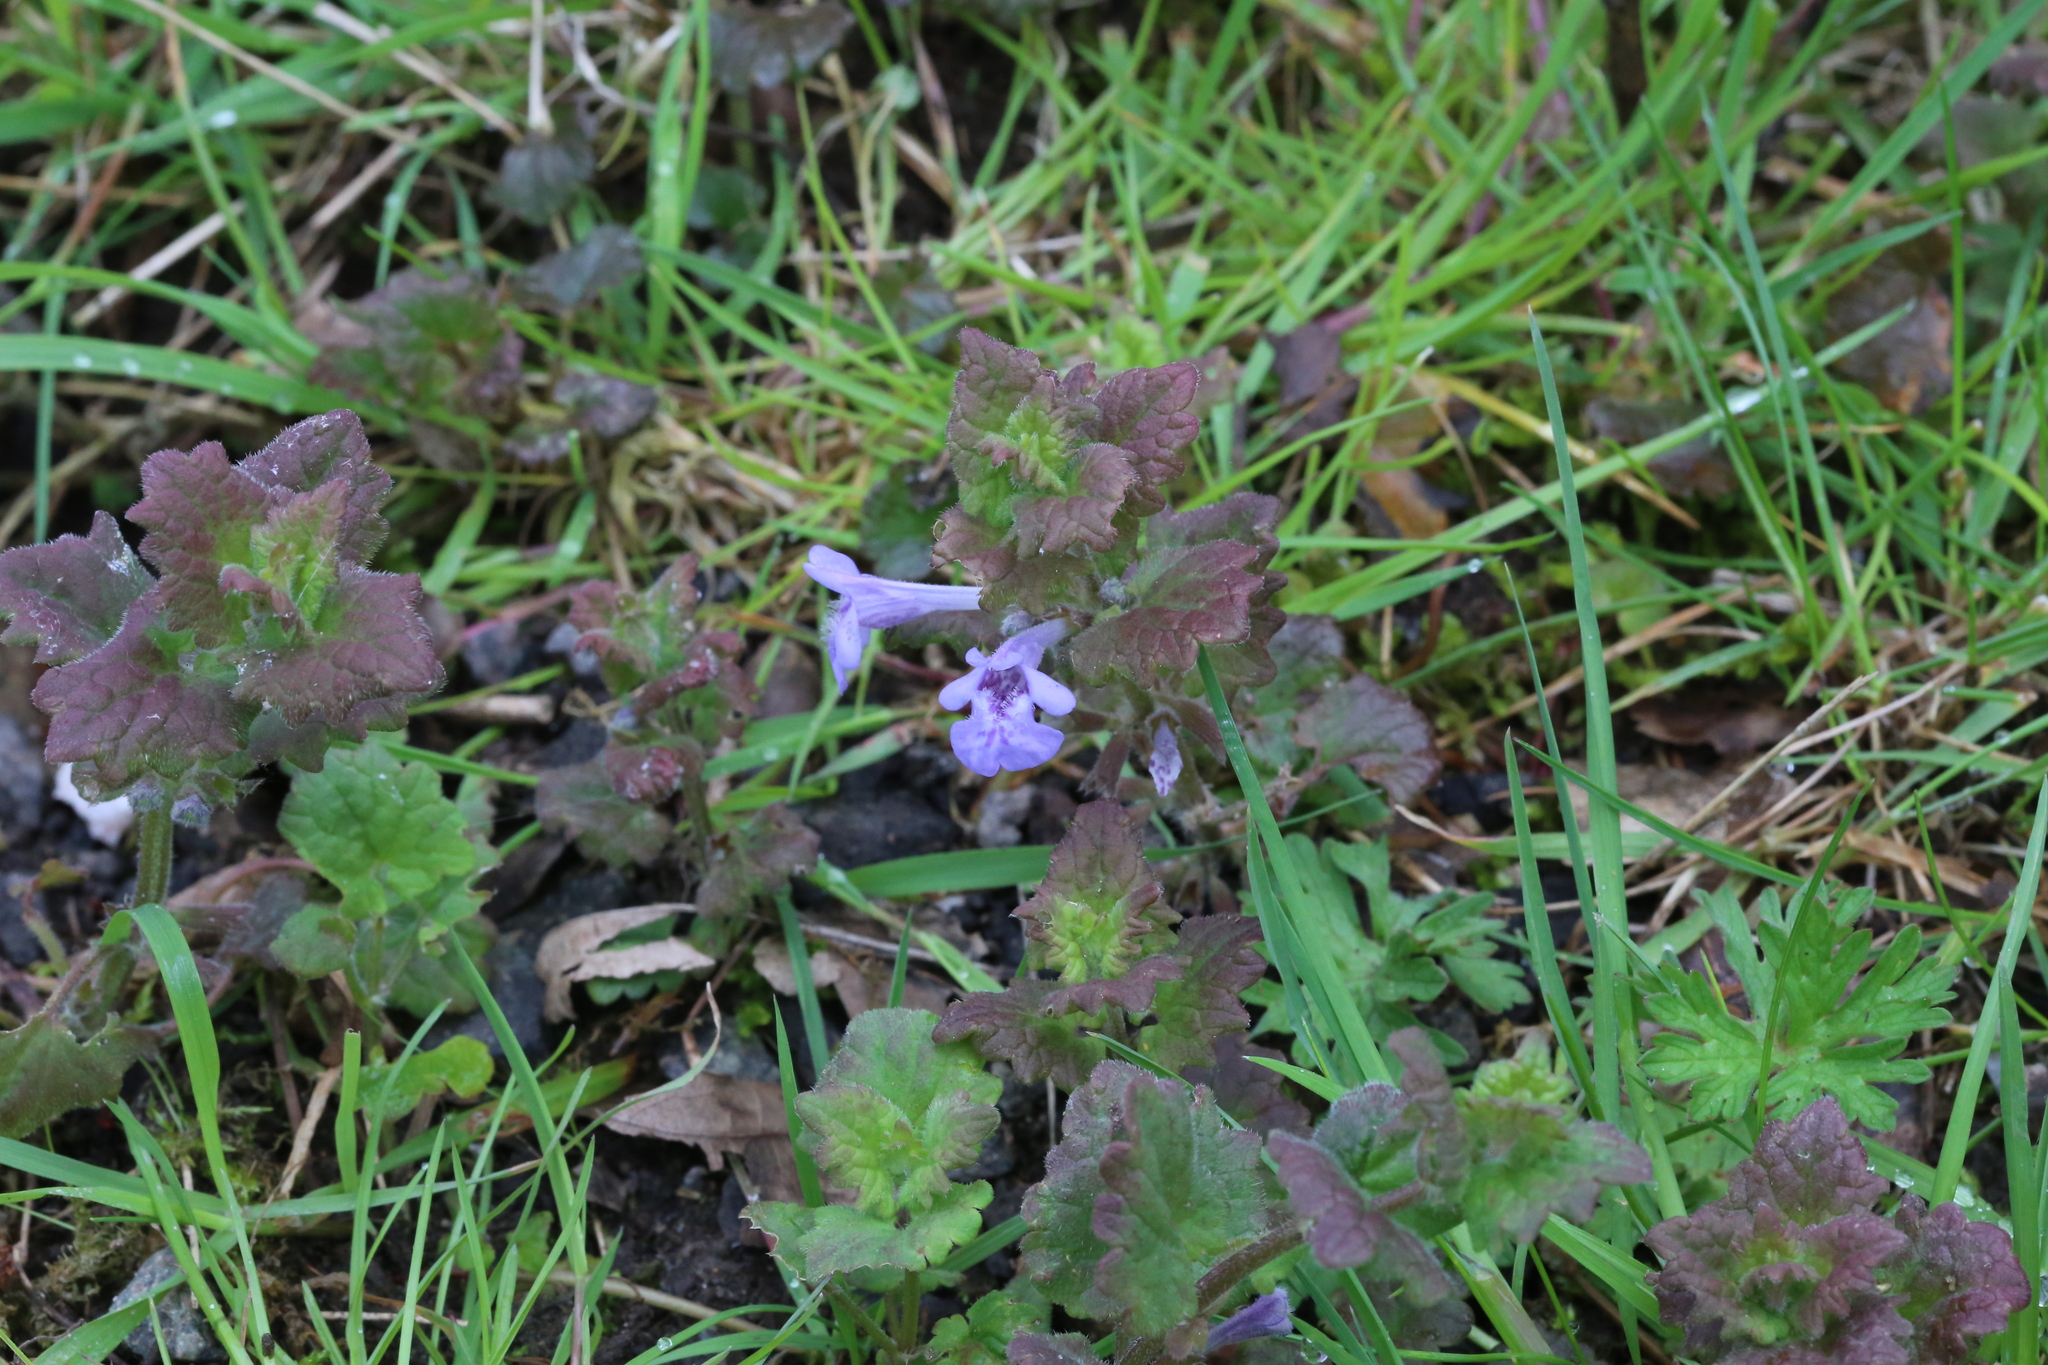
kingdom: Plantae
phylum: Tracheophyta
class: Magnoliopsida
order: Lamiales
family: Lamiaceae
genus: Glechoma
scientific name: Glechoma hederacea
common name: Ground ivy
